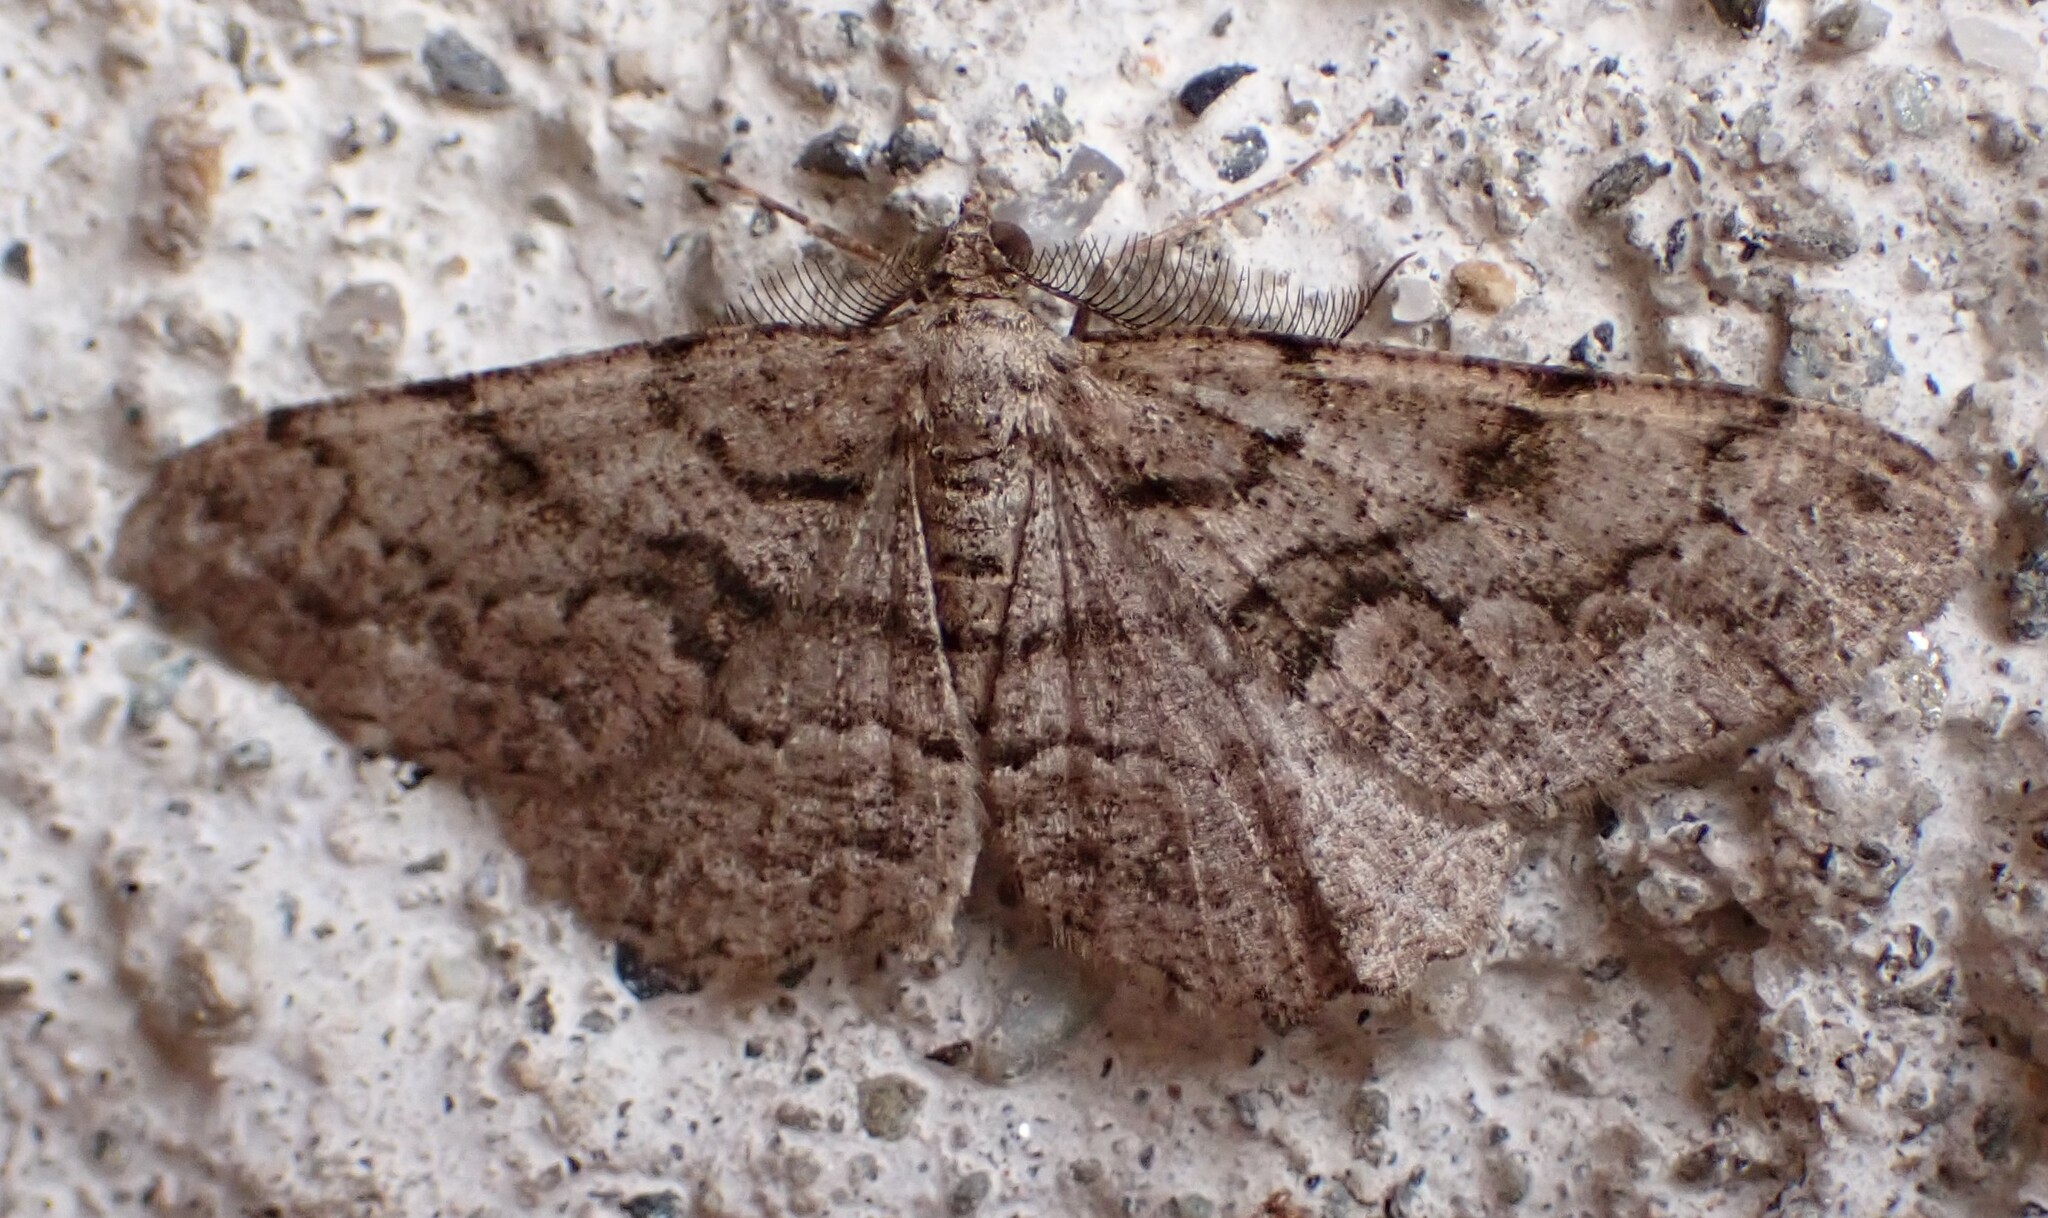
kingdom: Animalia
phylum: Arthropoda
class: Insecta
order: Lepidoptera
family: Geometridae
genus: Peribatodes
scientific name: Peribatodes secundaria
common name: Feathered beauty
